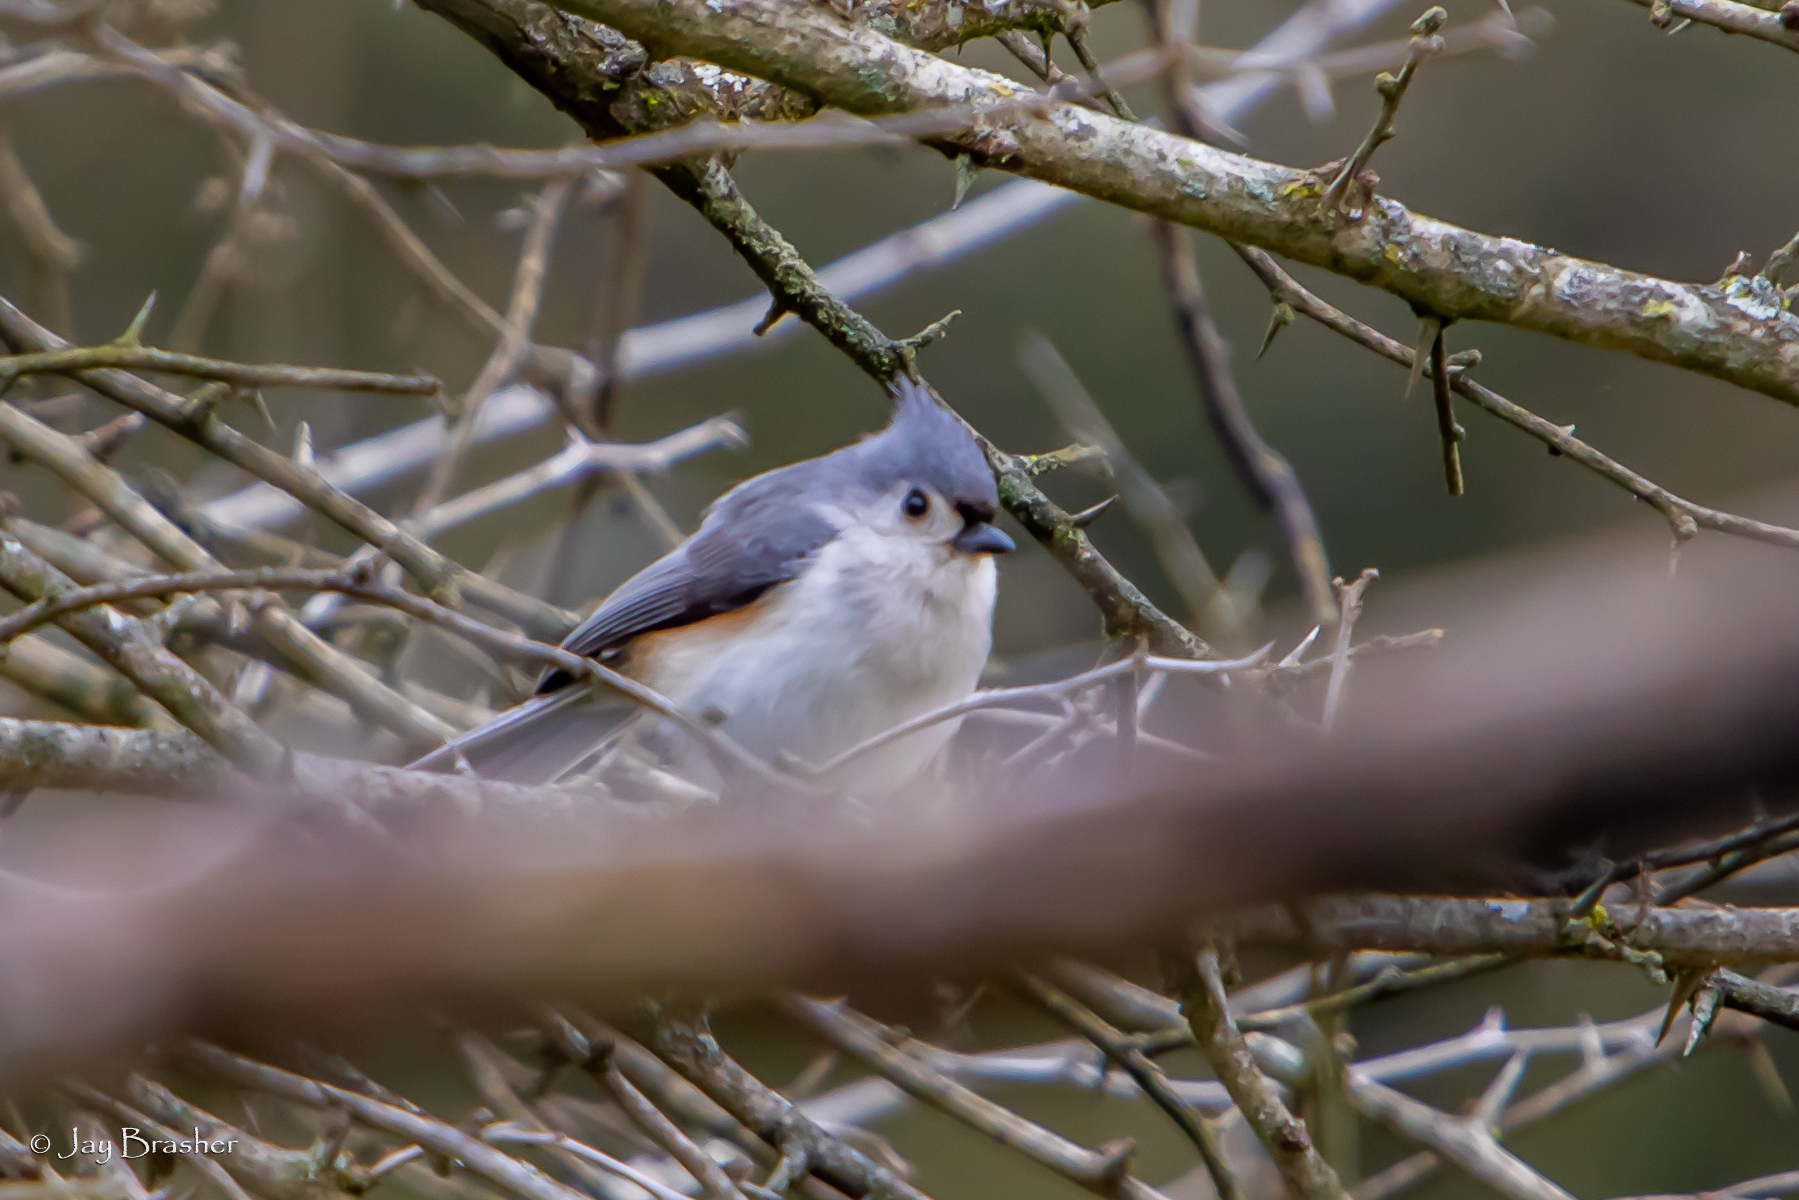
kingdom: Animalia
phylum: Chordata
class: Aves
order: Passeriformes
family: Paridae
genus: Baeolophus
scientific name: Baeolophus bicolor
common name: Tufted titmouse
